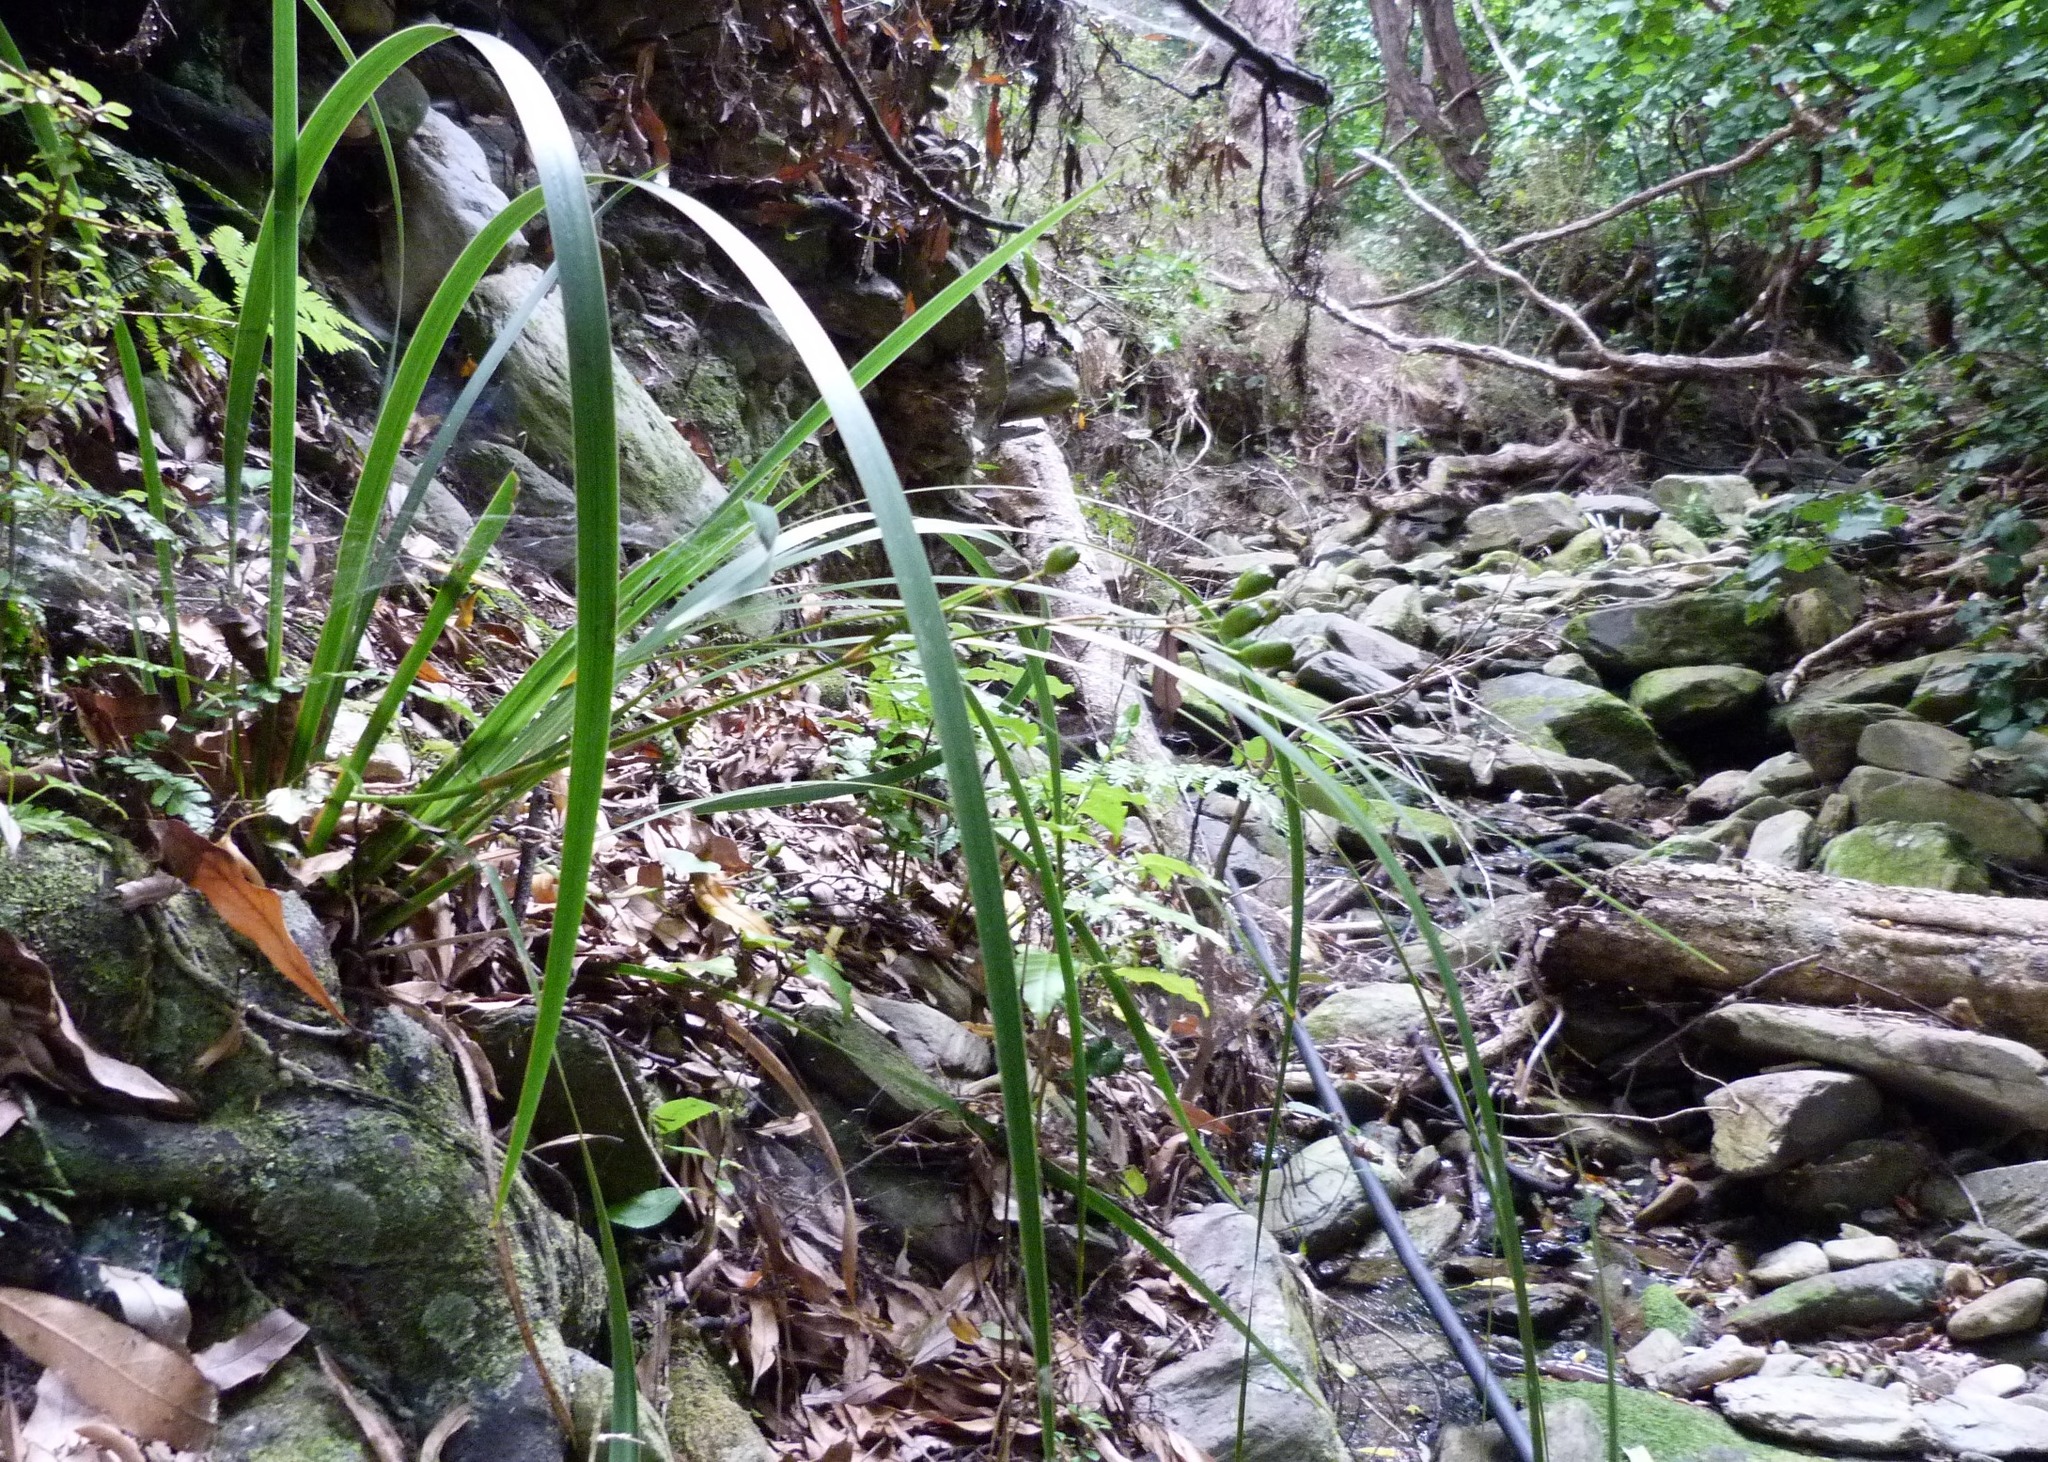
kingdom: Plantae
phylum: Tracheophyta
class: Liliopsida
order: Asparagales
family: Iridaceae
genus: Libertia
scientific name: Libertia ixioides
